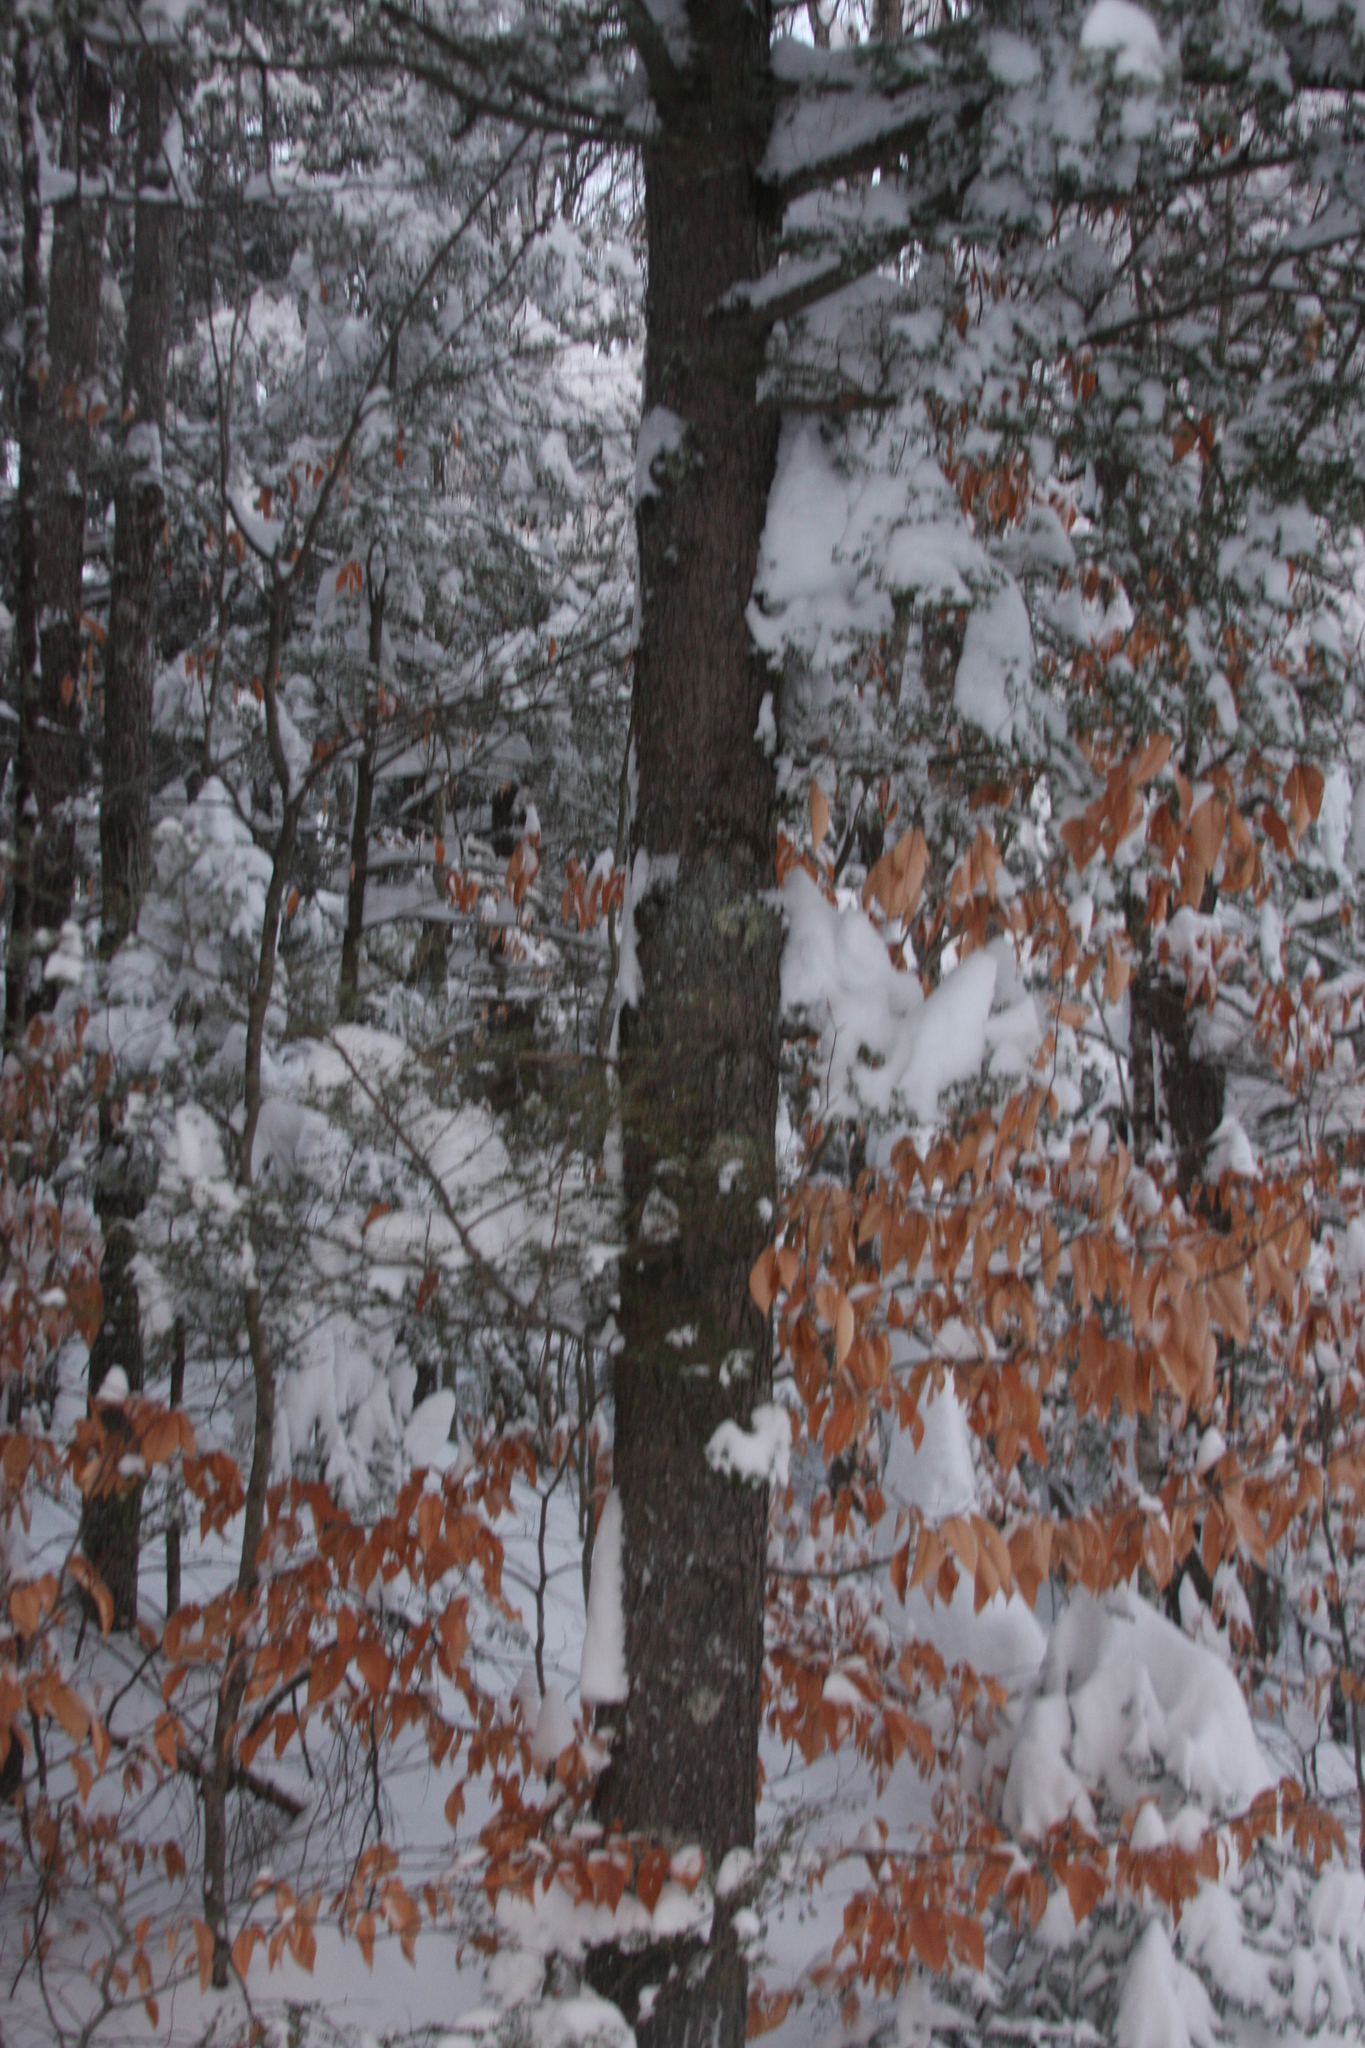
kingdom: Plantae
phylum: Tracheophyta
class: Magnoliopsida
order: Fagales
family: Fagaceae
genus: Fagus
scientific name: Fagus grandifolia
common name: American beech
